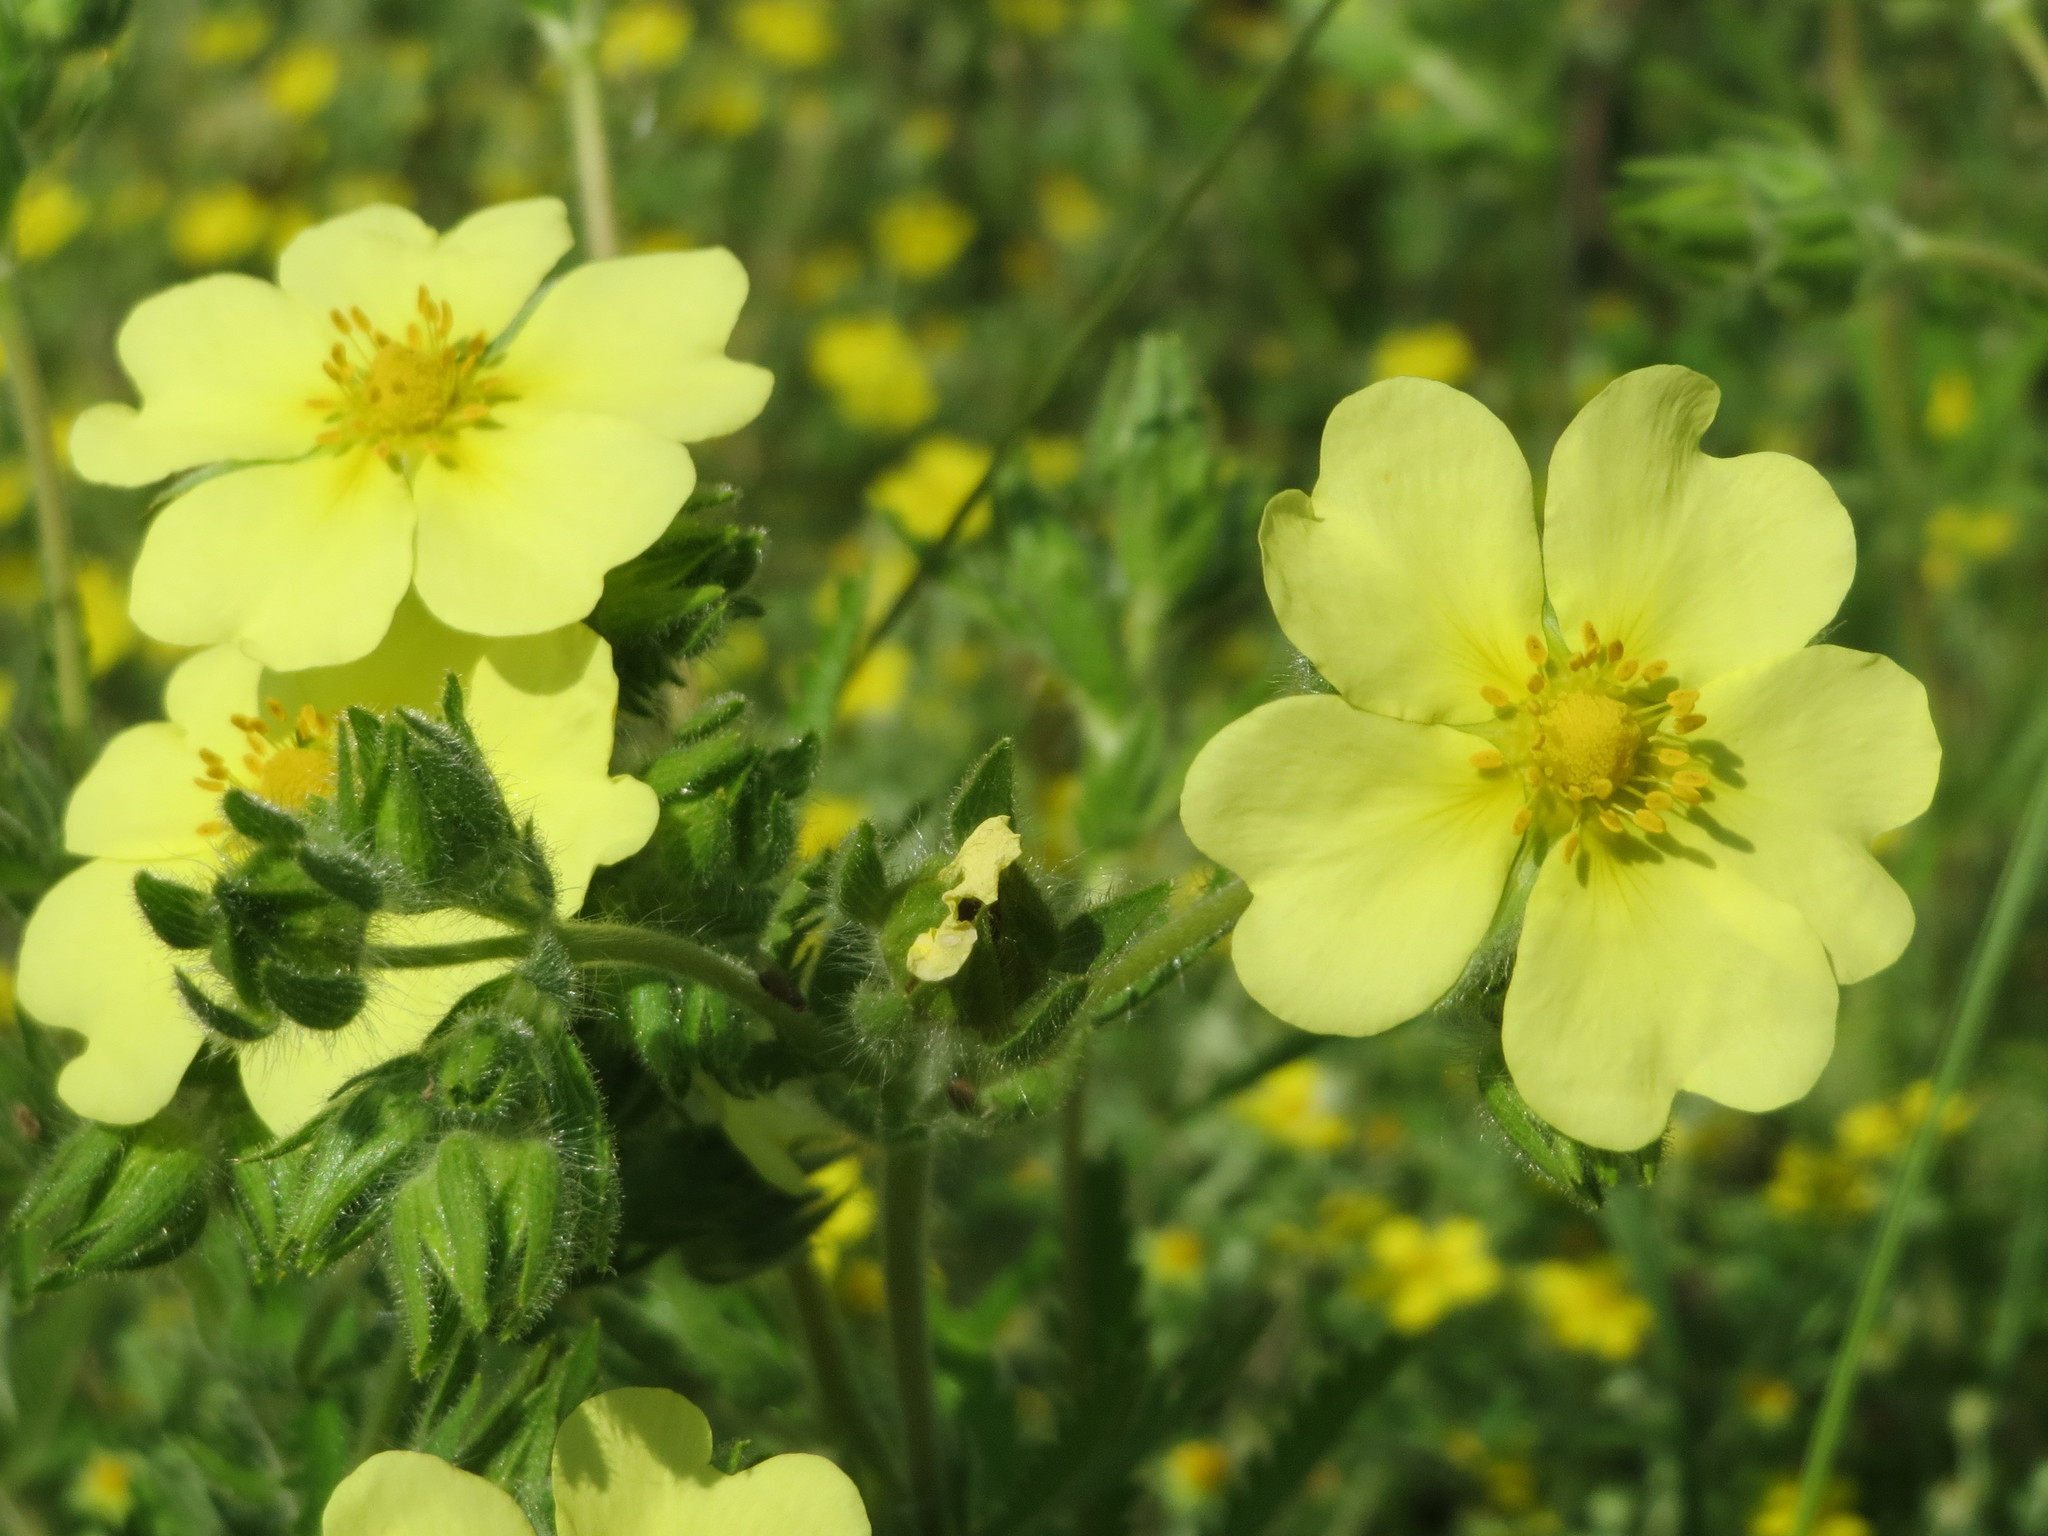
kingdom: Plantae
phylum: Tracheophyta
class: Magnoliopsida
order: Rosales
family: Rosaceae
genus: Potentilla
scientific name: Potentilla recta
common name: Sulphur cinquefoil
